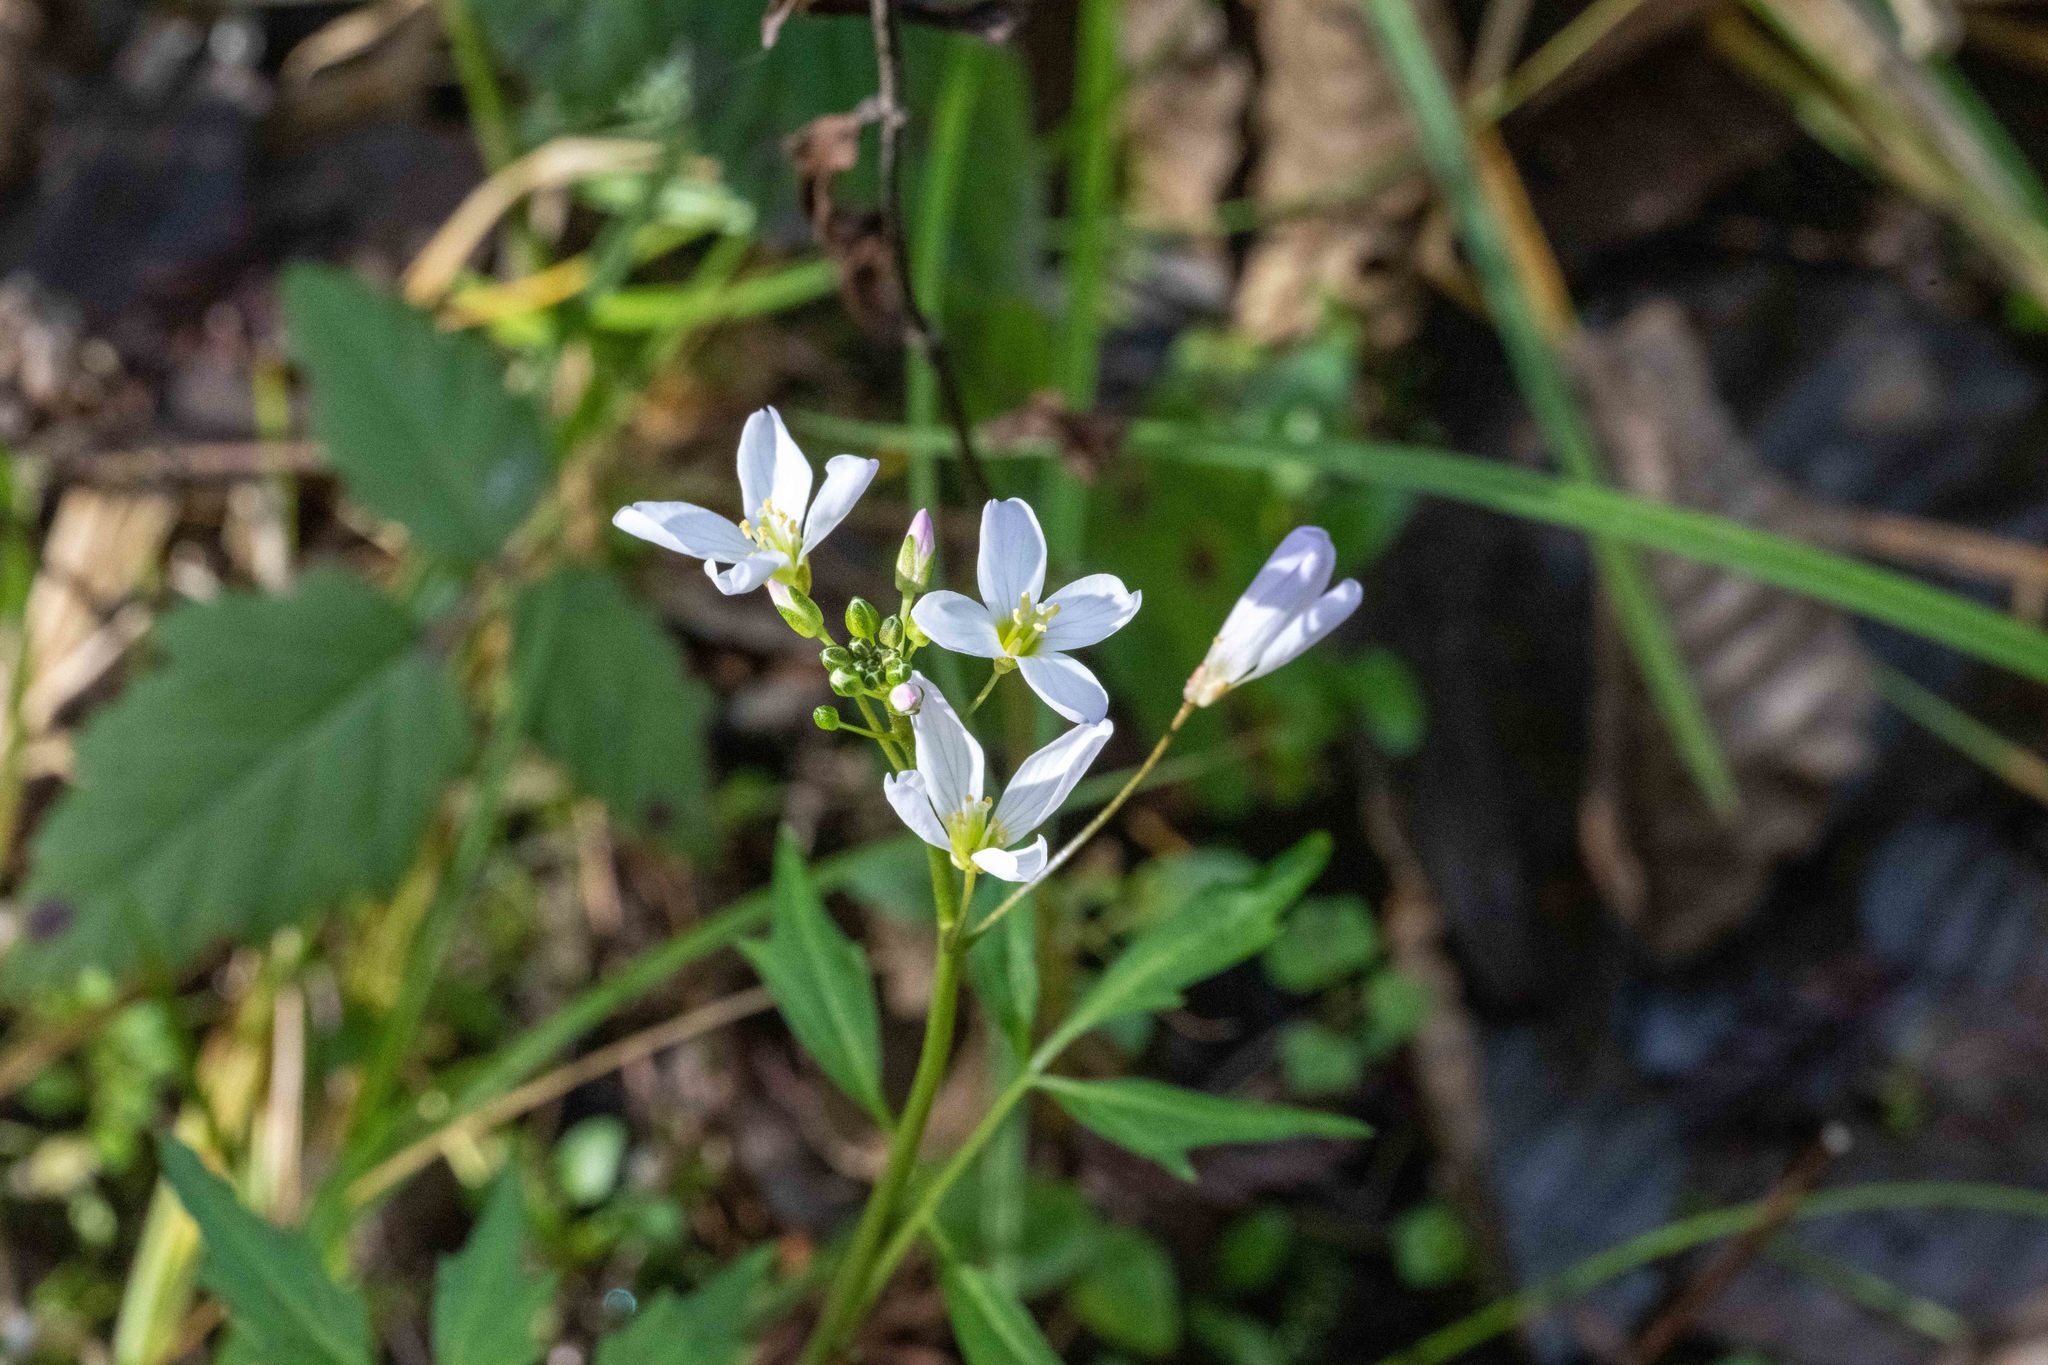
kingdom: Plantae
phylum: Tracheophyta
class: Magnoliopsida
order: Brassicales
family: Brassicaceae
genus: Cardamine
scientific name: Cardamine californica
